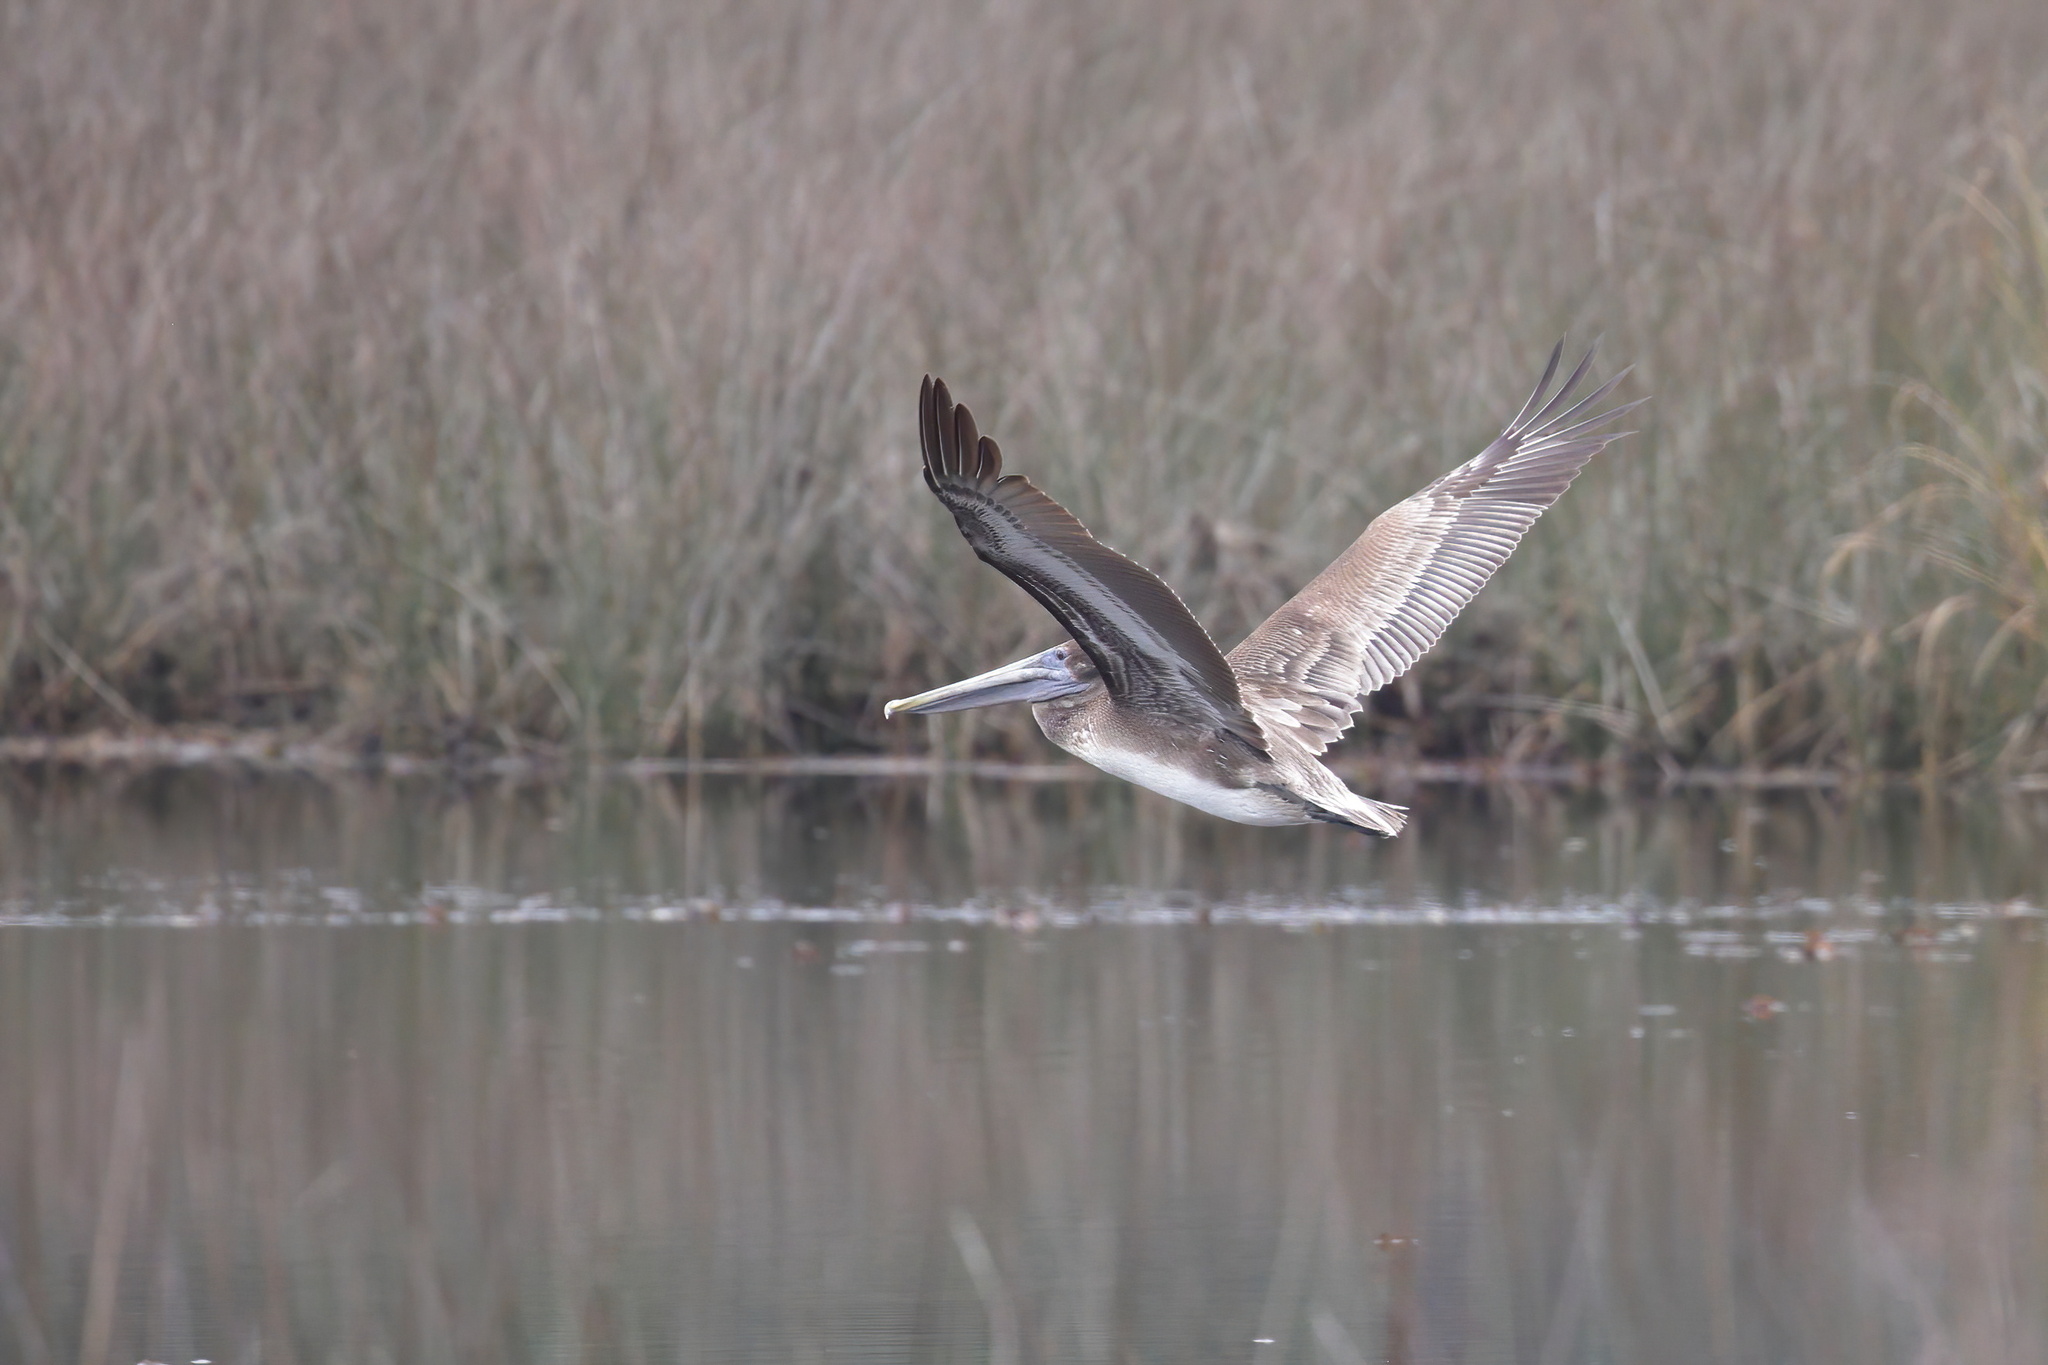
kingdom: Animalia
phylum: Chordata
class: Aves
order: Pelecaniformes
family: Pelecanidae
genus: Pelecanus
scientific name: Pelecanus occidentalis
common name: Brown pelican
